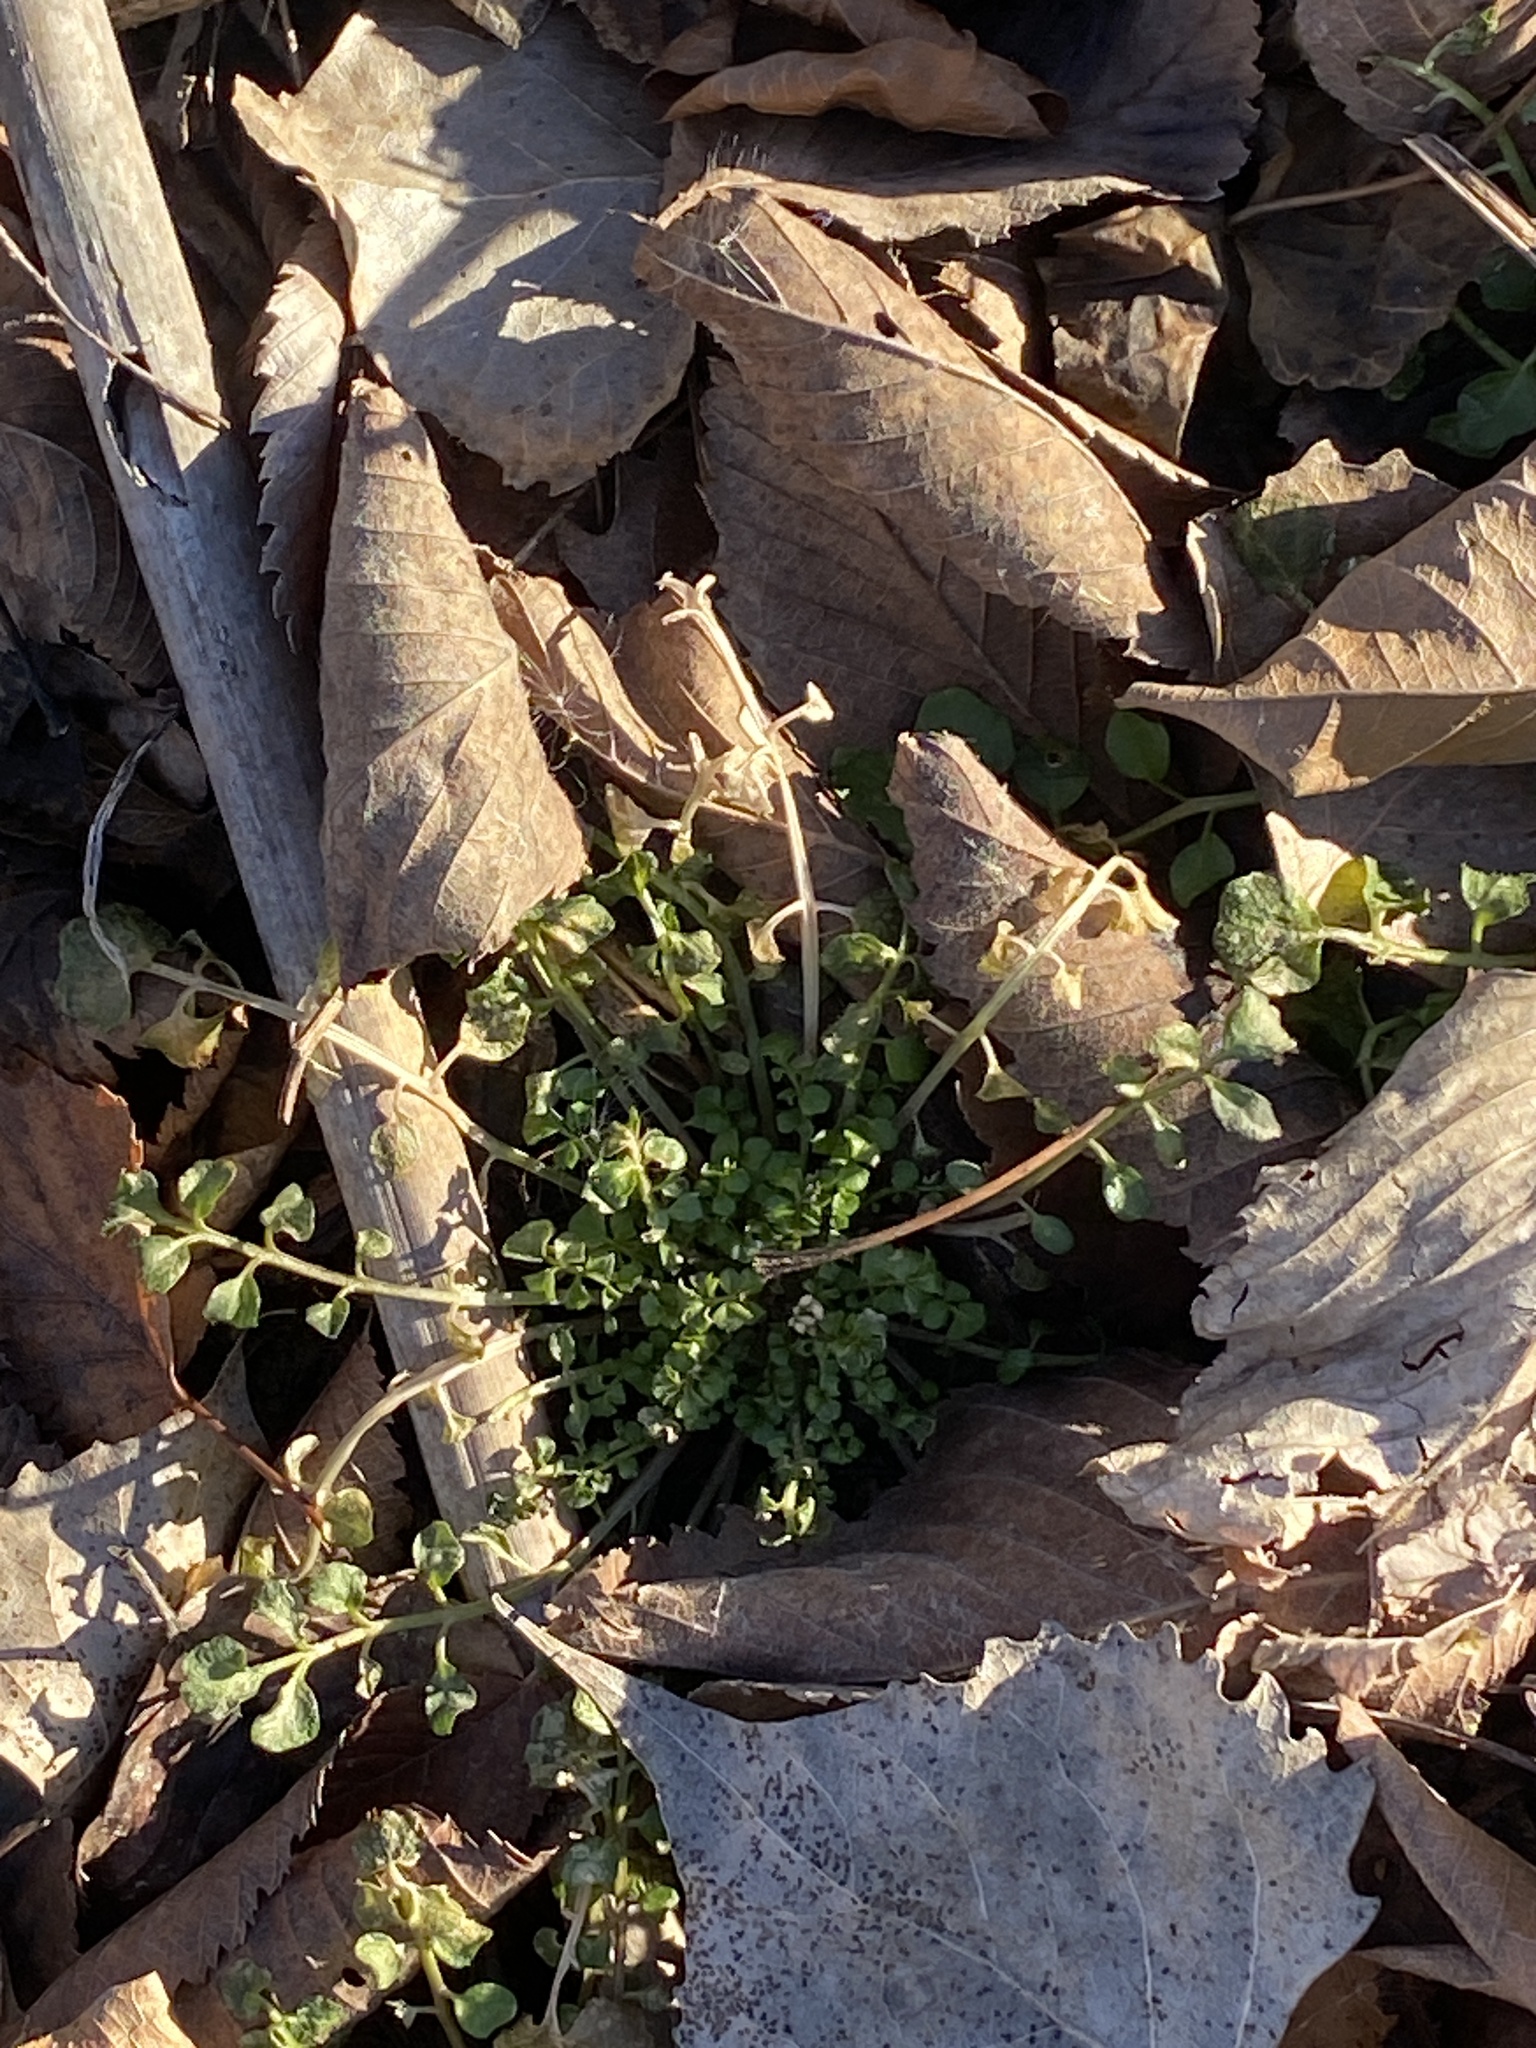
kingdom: Plantae
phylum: Tracheophyta
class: Magnoliopsida
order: Brassicales
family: Brassicaceae
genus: Cardamine
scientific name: Cardamine hirsuta
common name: Hairy bittercress
